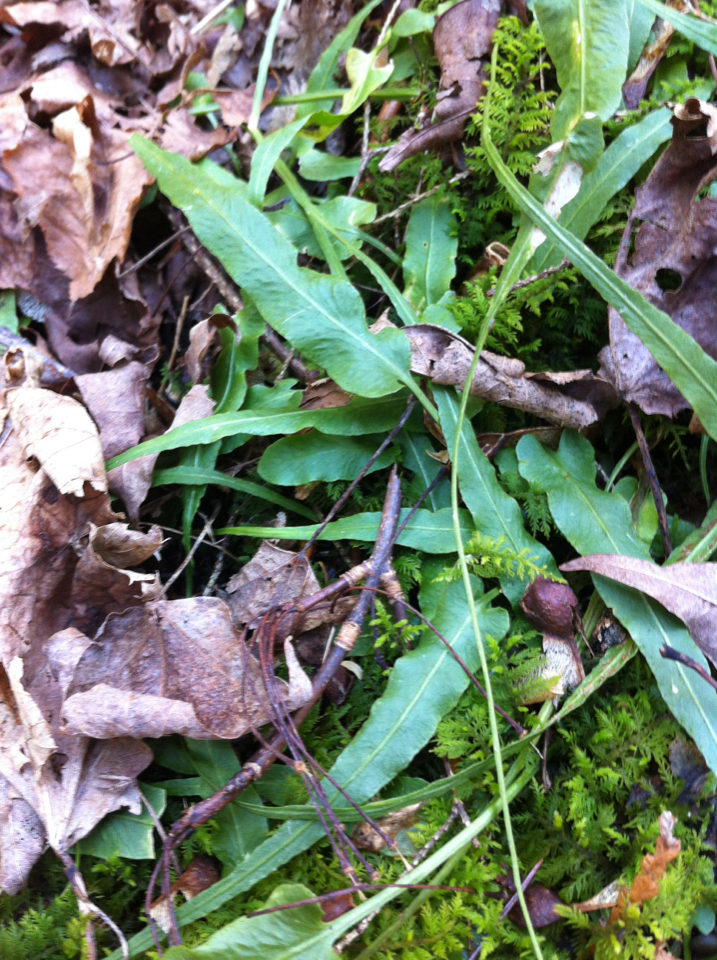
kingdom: Plantae
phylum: Tracheophyta
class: Polypodiopsida
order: Polypodiales
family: Aspleniaceae
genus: Asplenium
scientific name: Asplenium rhizophyllum
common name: Walking fern
